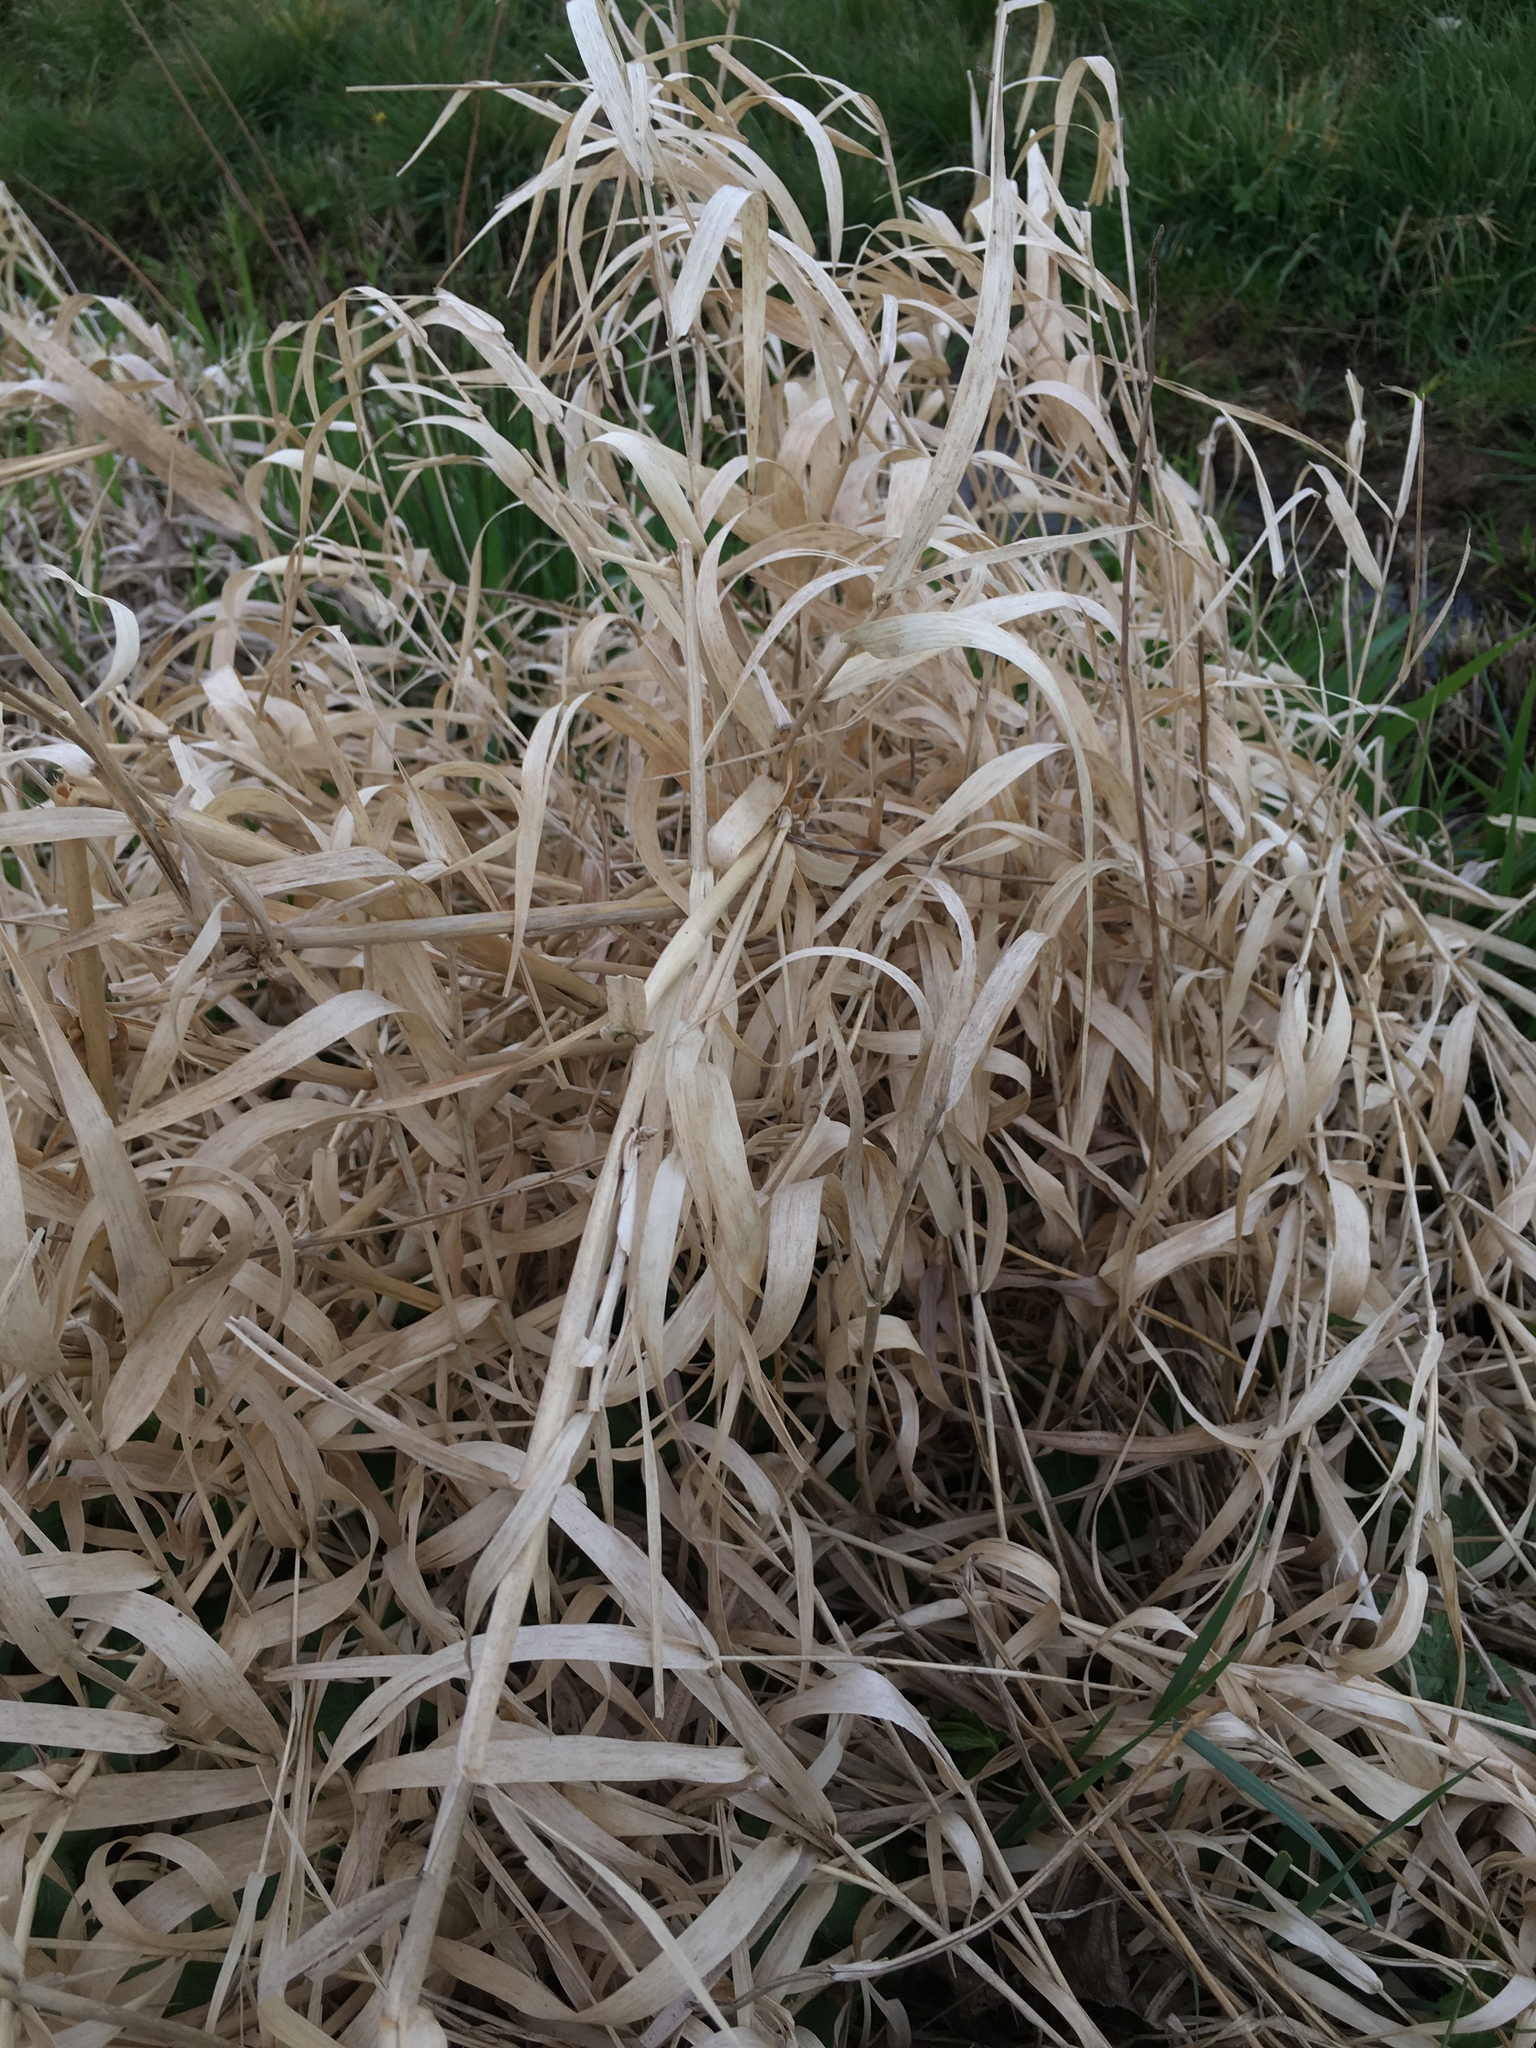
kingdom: Plantae
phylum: Tracheophyta
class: Liliopsida
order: Poales
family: Poaceae
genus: Phalaris
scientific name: Phalaris arundinacea
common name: Reed canary-grass
